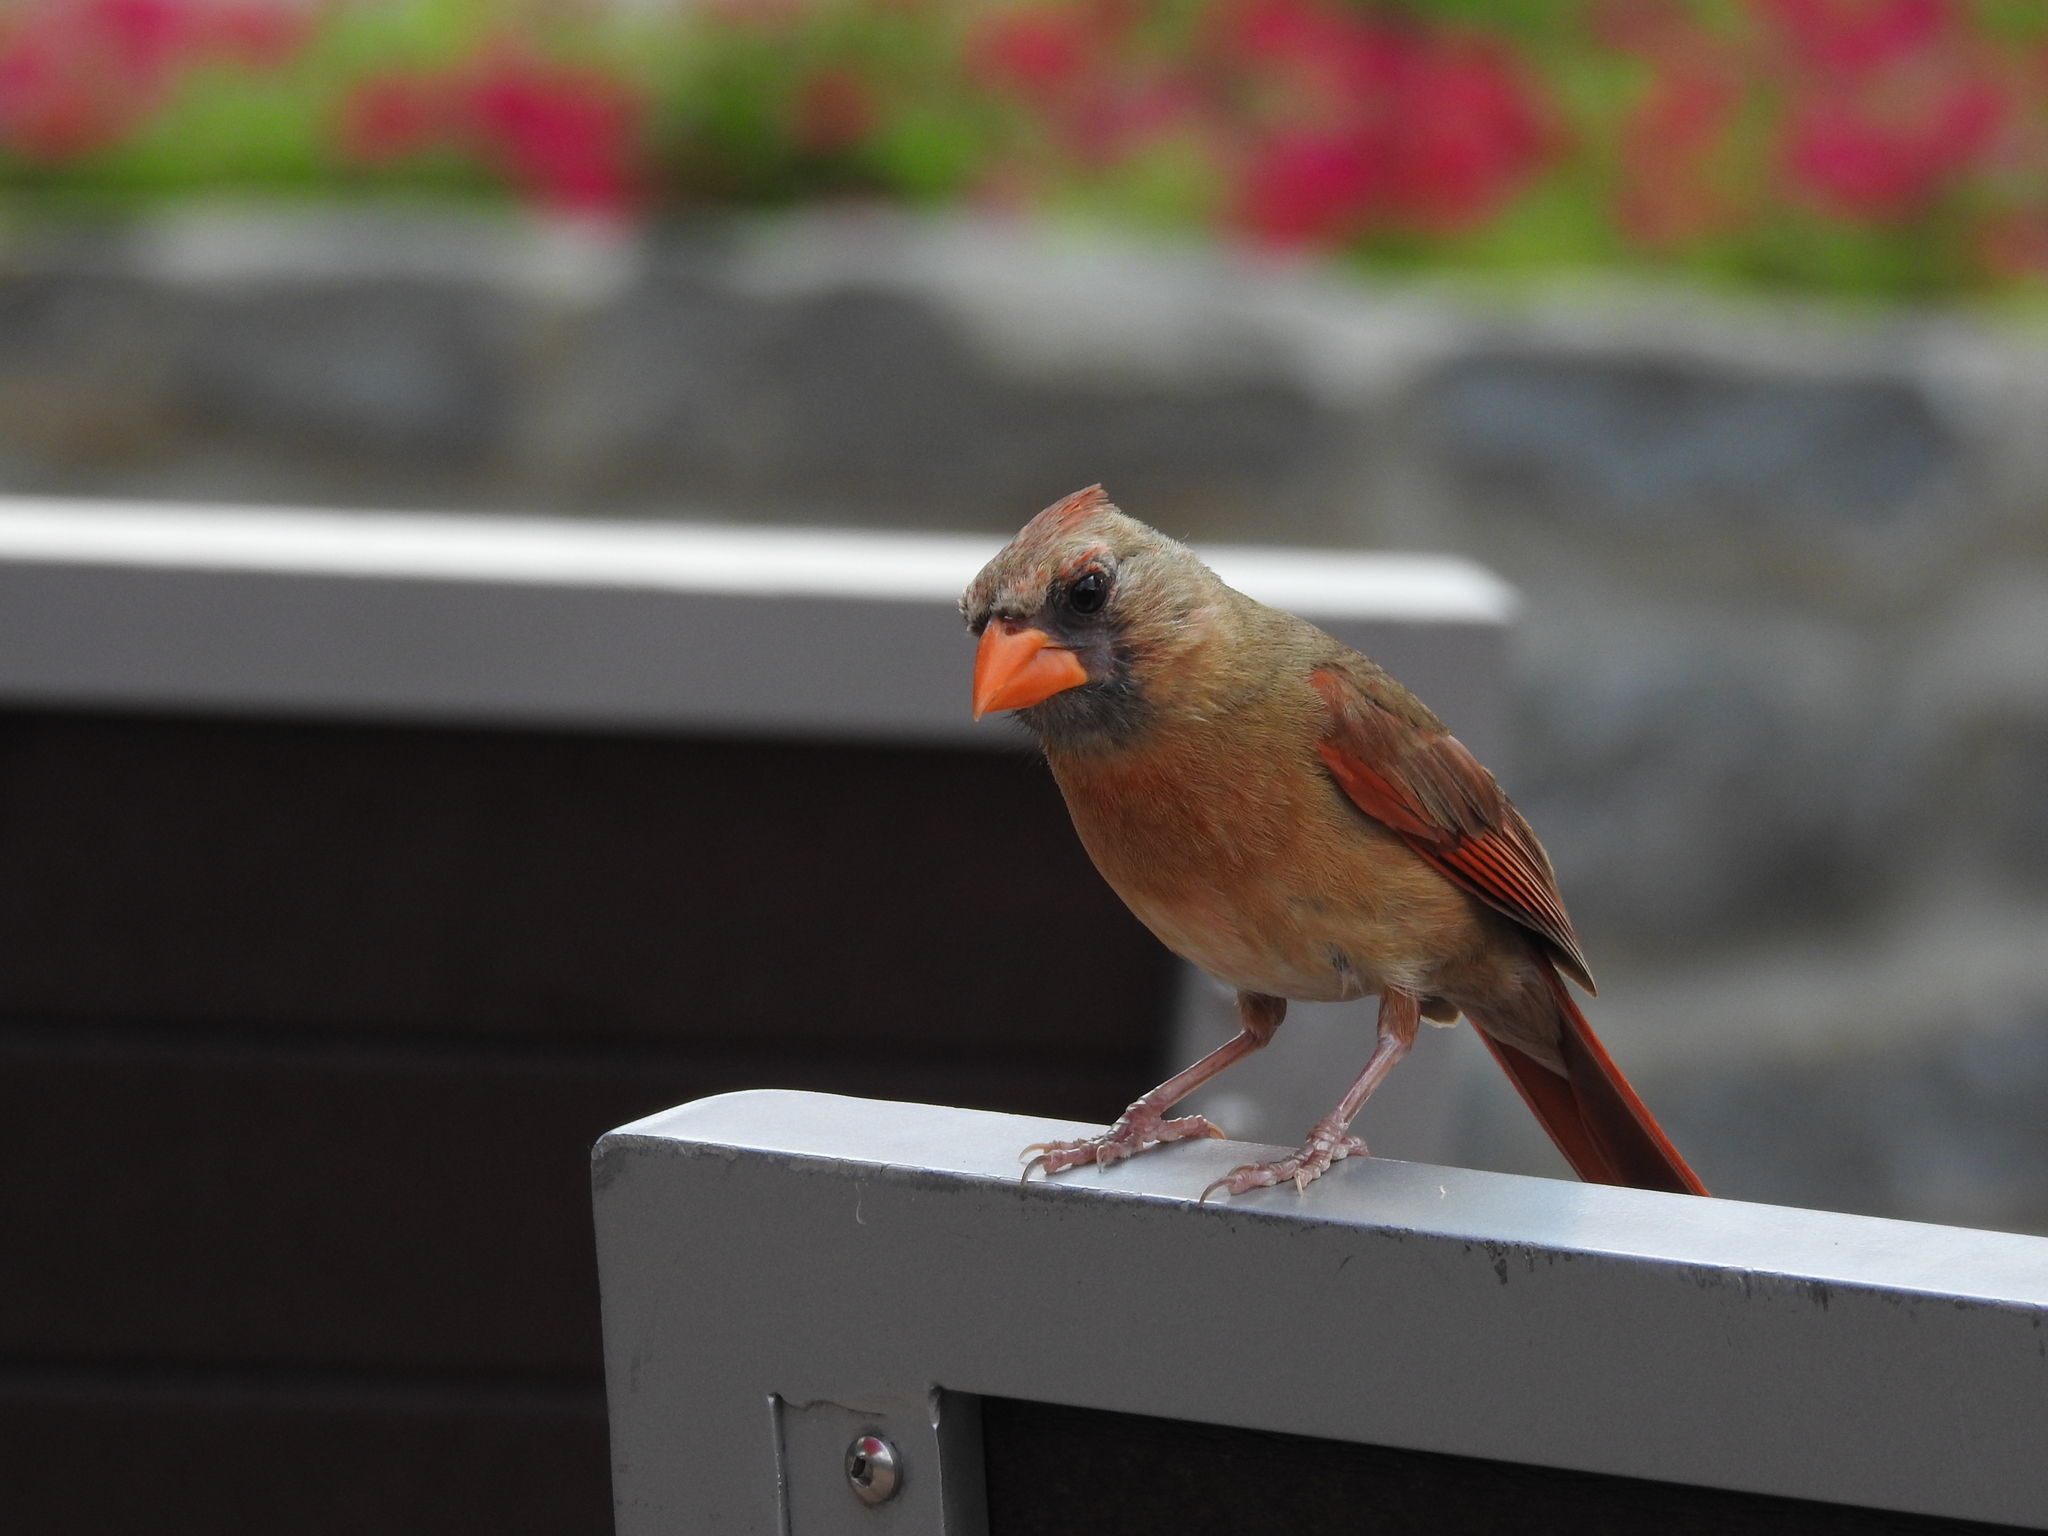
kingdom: Animalia
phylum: Chordata
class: Aves
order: Passeriformes
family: Cardinalidae
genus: Cardinalis
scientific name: Cardinalis cardinalis
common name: Northern cardinal
